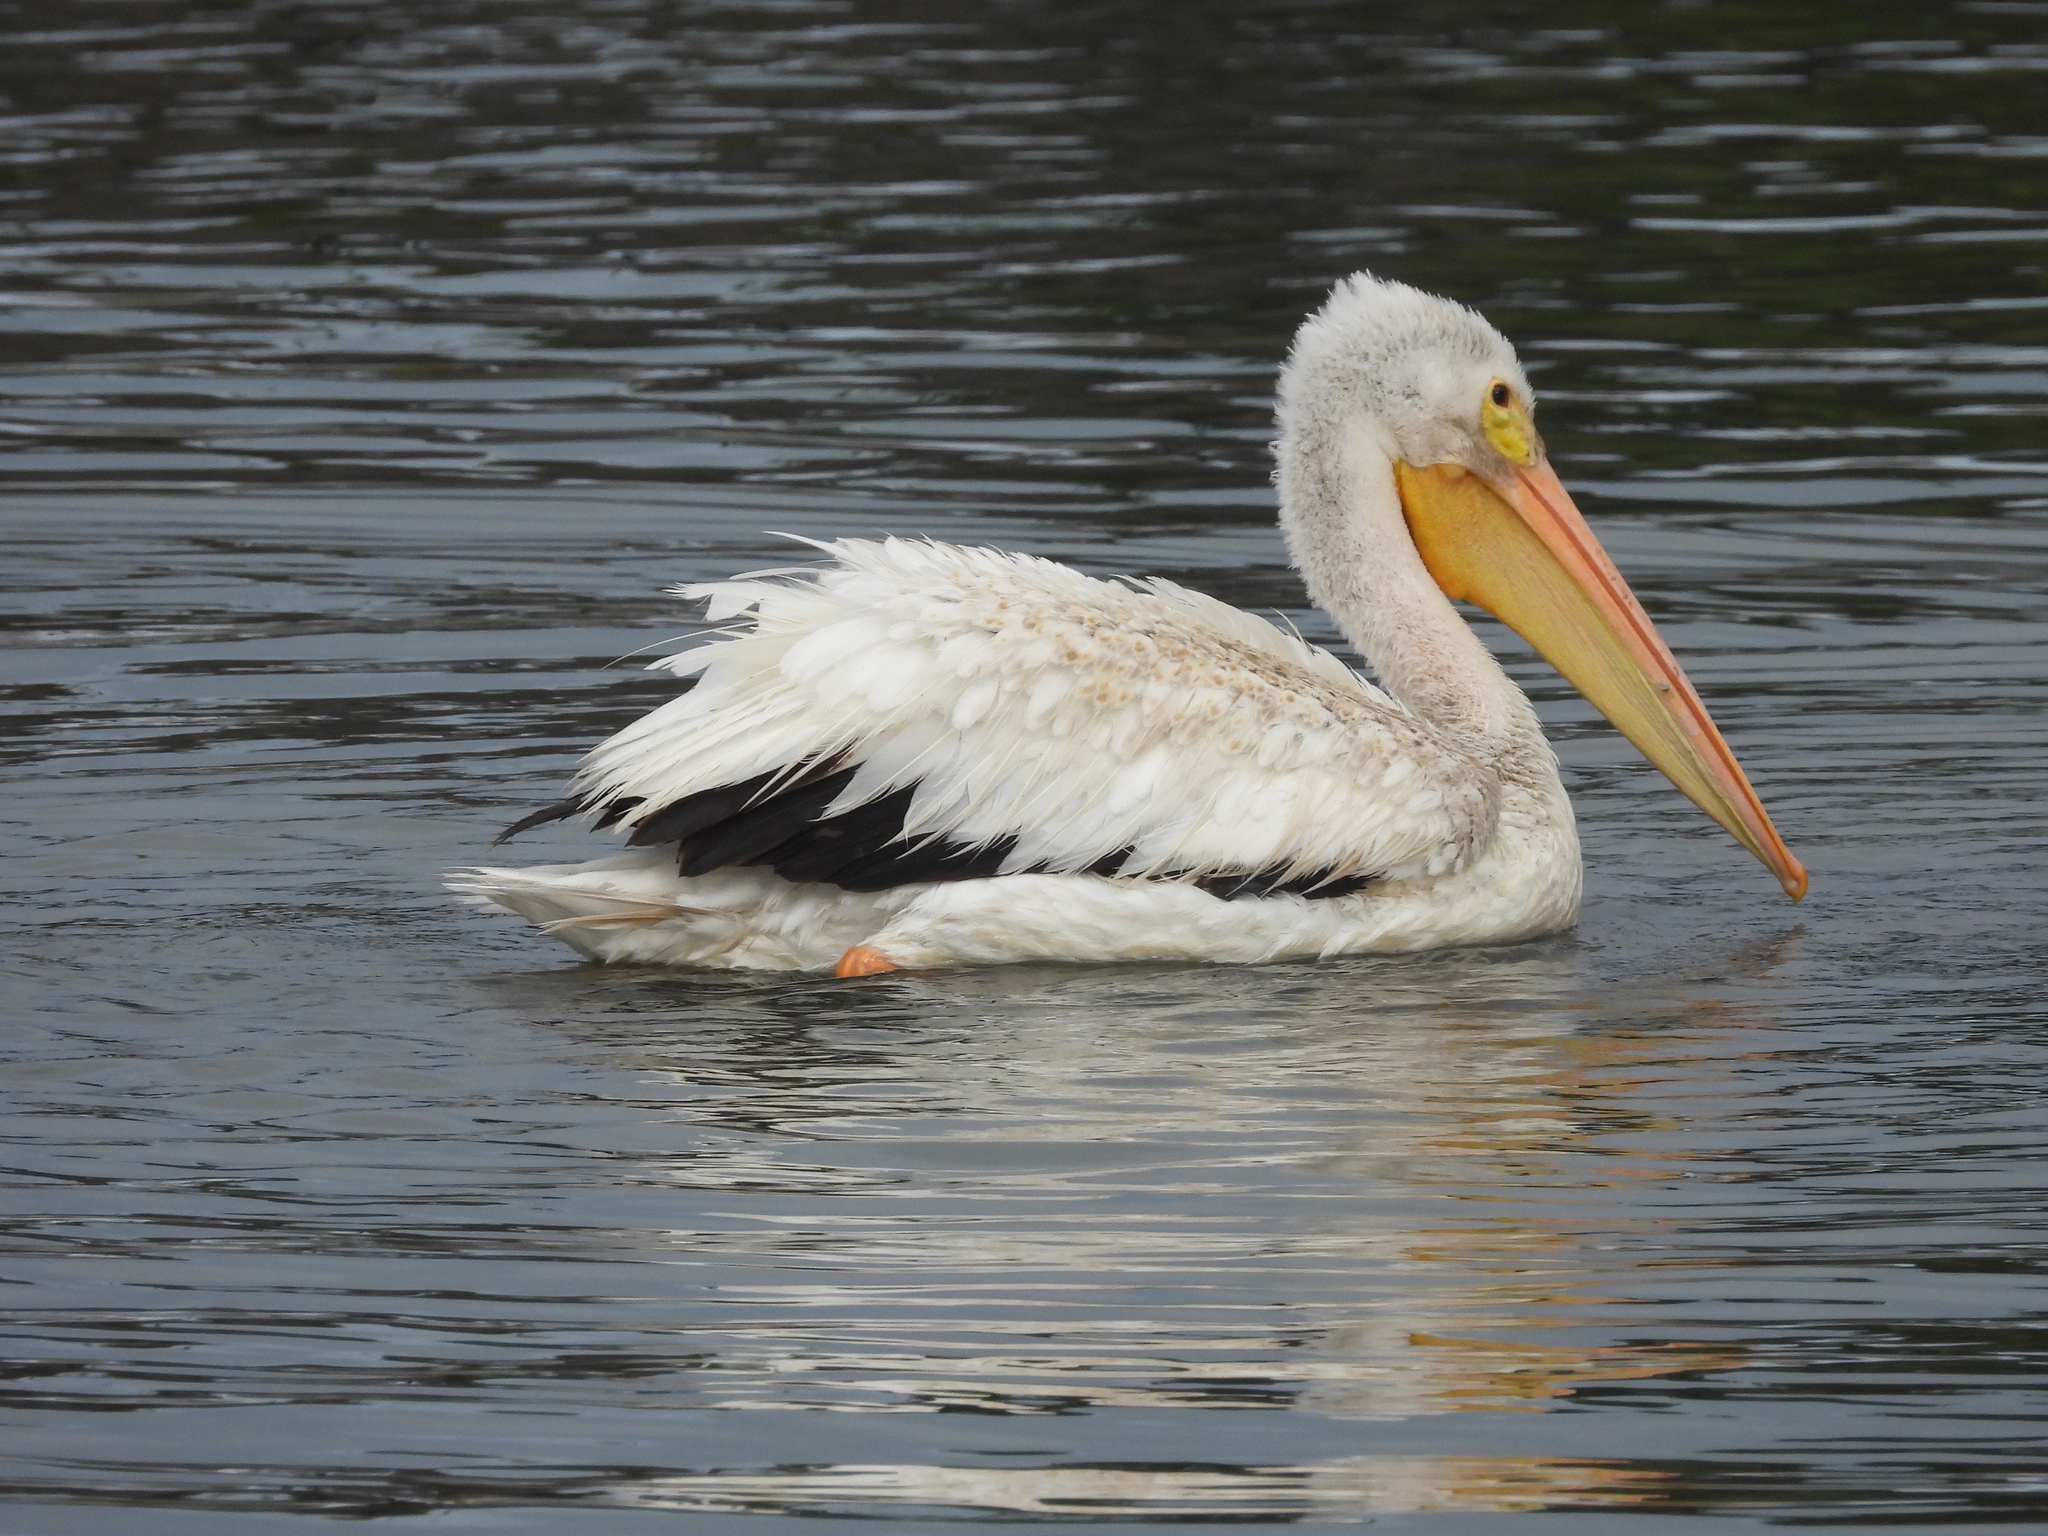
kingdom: Animalia
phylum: Chordata
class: Aves
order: Pelecaniformes
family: Pelecanidae
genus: Pelecanus
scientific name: Pelecanus erythrorhynchos
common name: American white pelican
